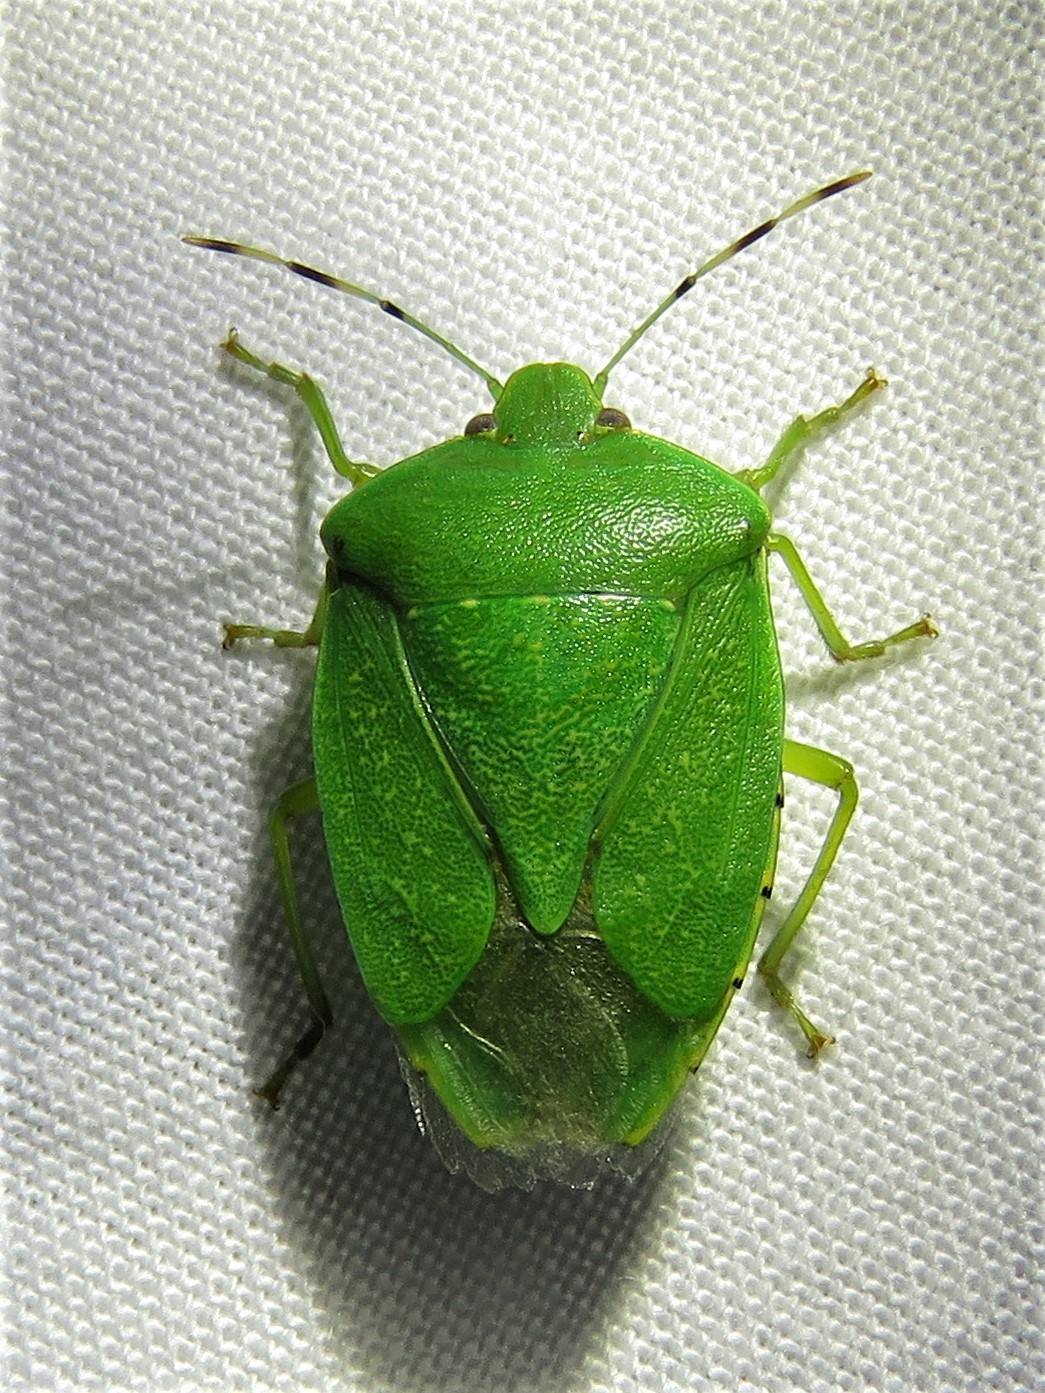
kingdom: Animalia
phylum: Arthropoda
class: Insecta
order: Hemiptera
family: Pentatomidae
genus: Chinavia
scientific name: Chinavia hilaris
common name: Green stink bug
